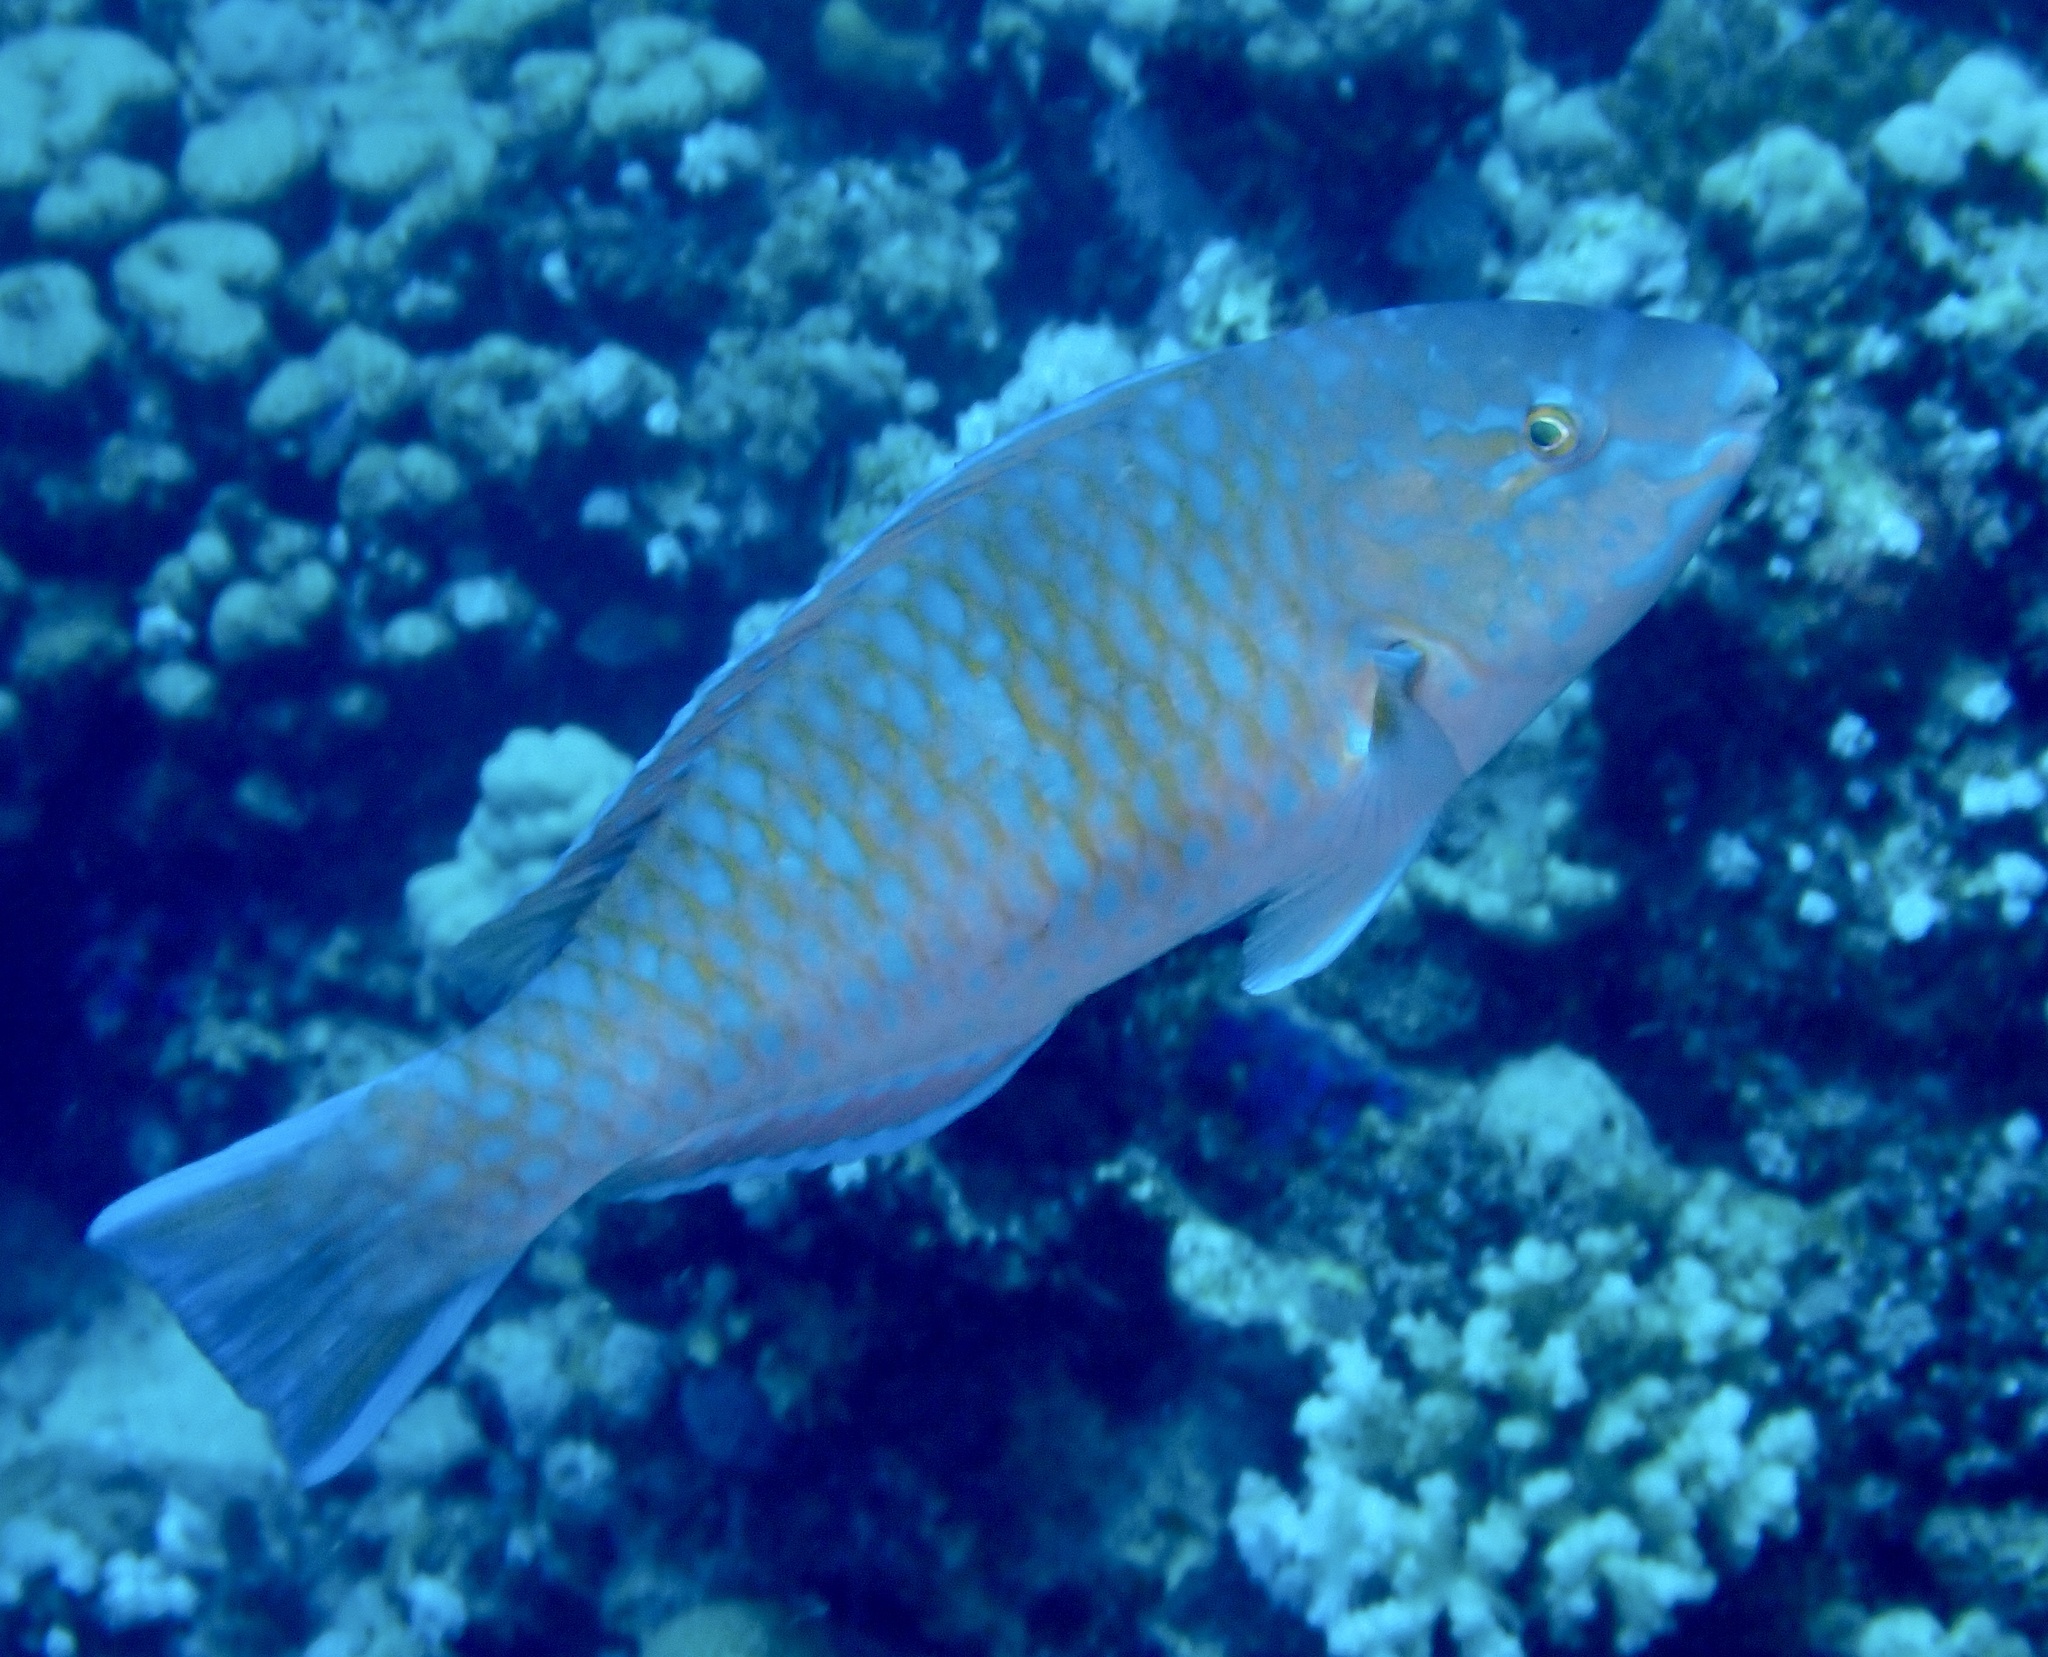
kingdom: Animalia
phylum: Chordata
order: Perciformes
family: Scaridae
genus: Scarus
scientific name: Scarus ghobban
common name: Blue-barred parrotfish
